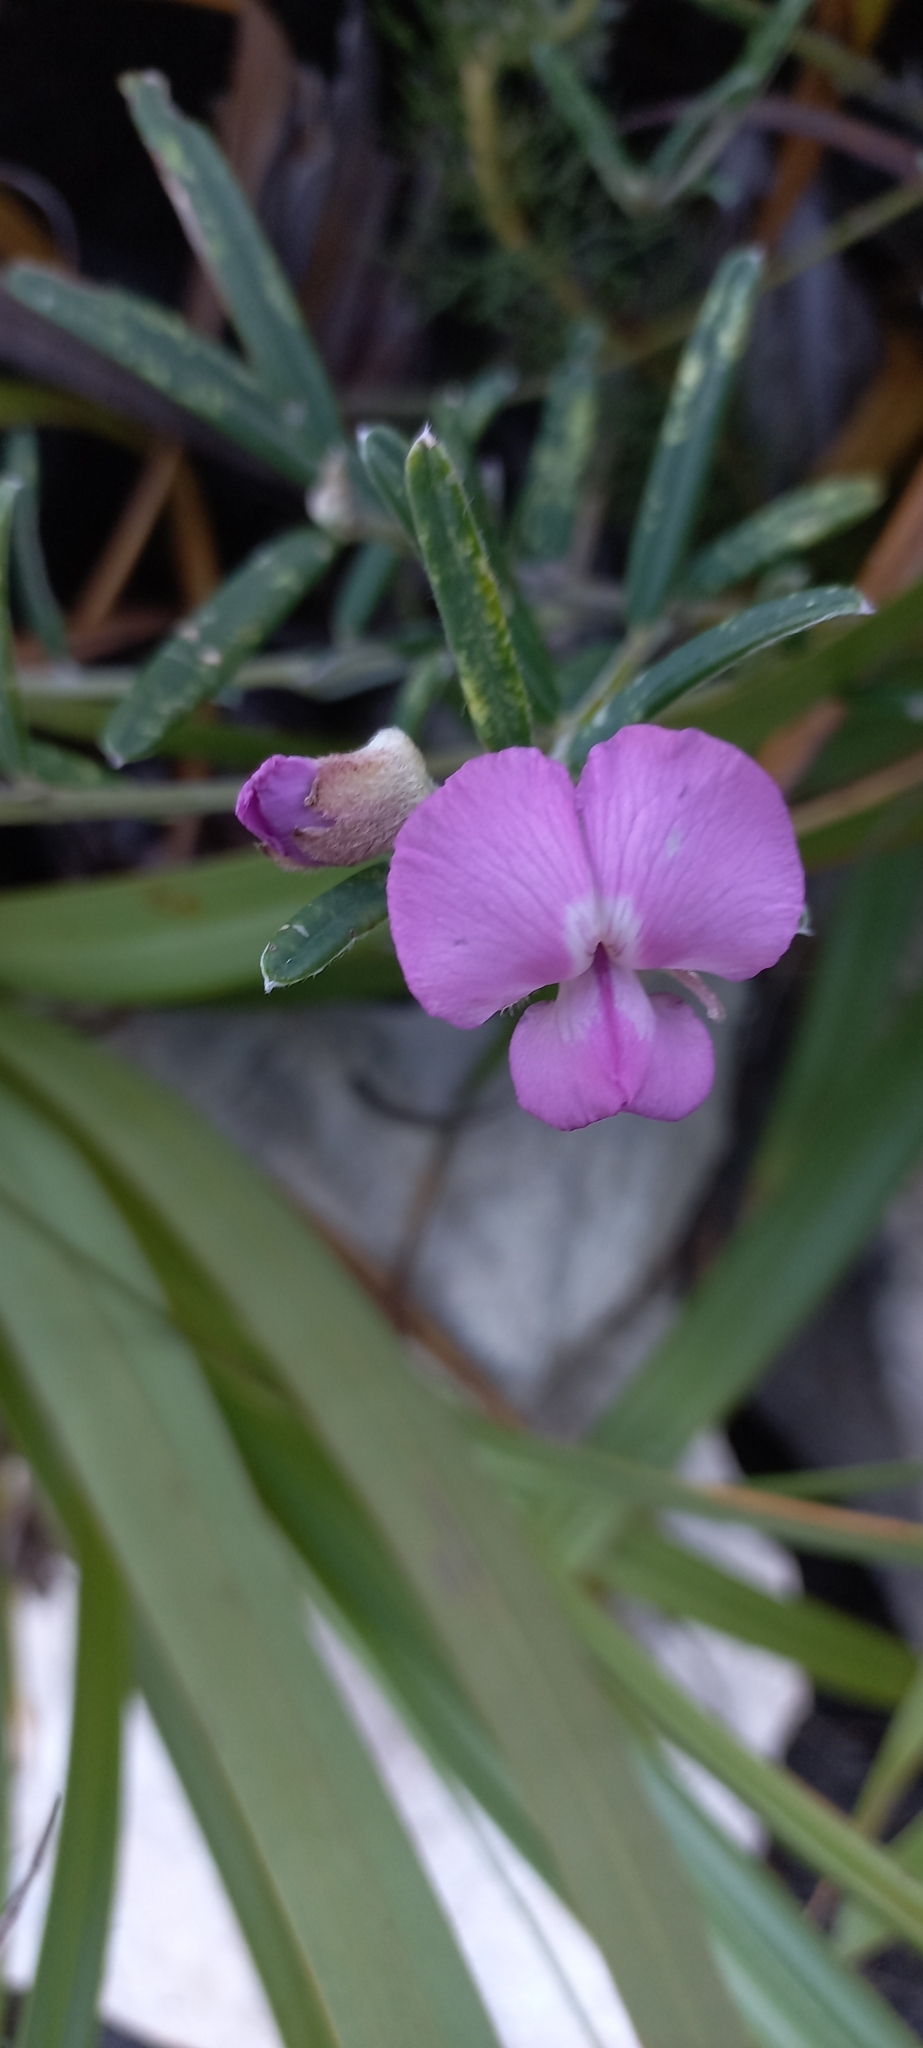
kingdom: Plantae
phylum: Tracheophyta
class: Magnoliopsida
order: Fabales
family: Fabaceae
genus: Podalyria
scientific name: Podalyria oleifolia
